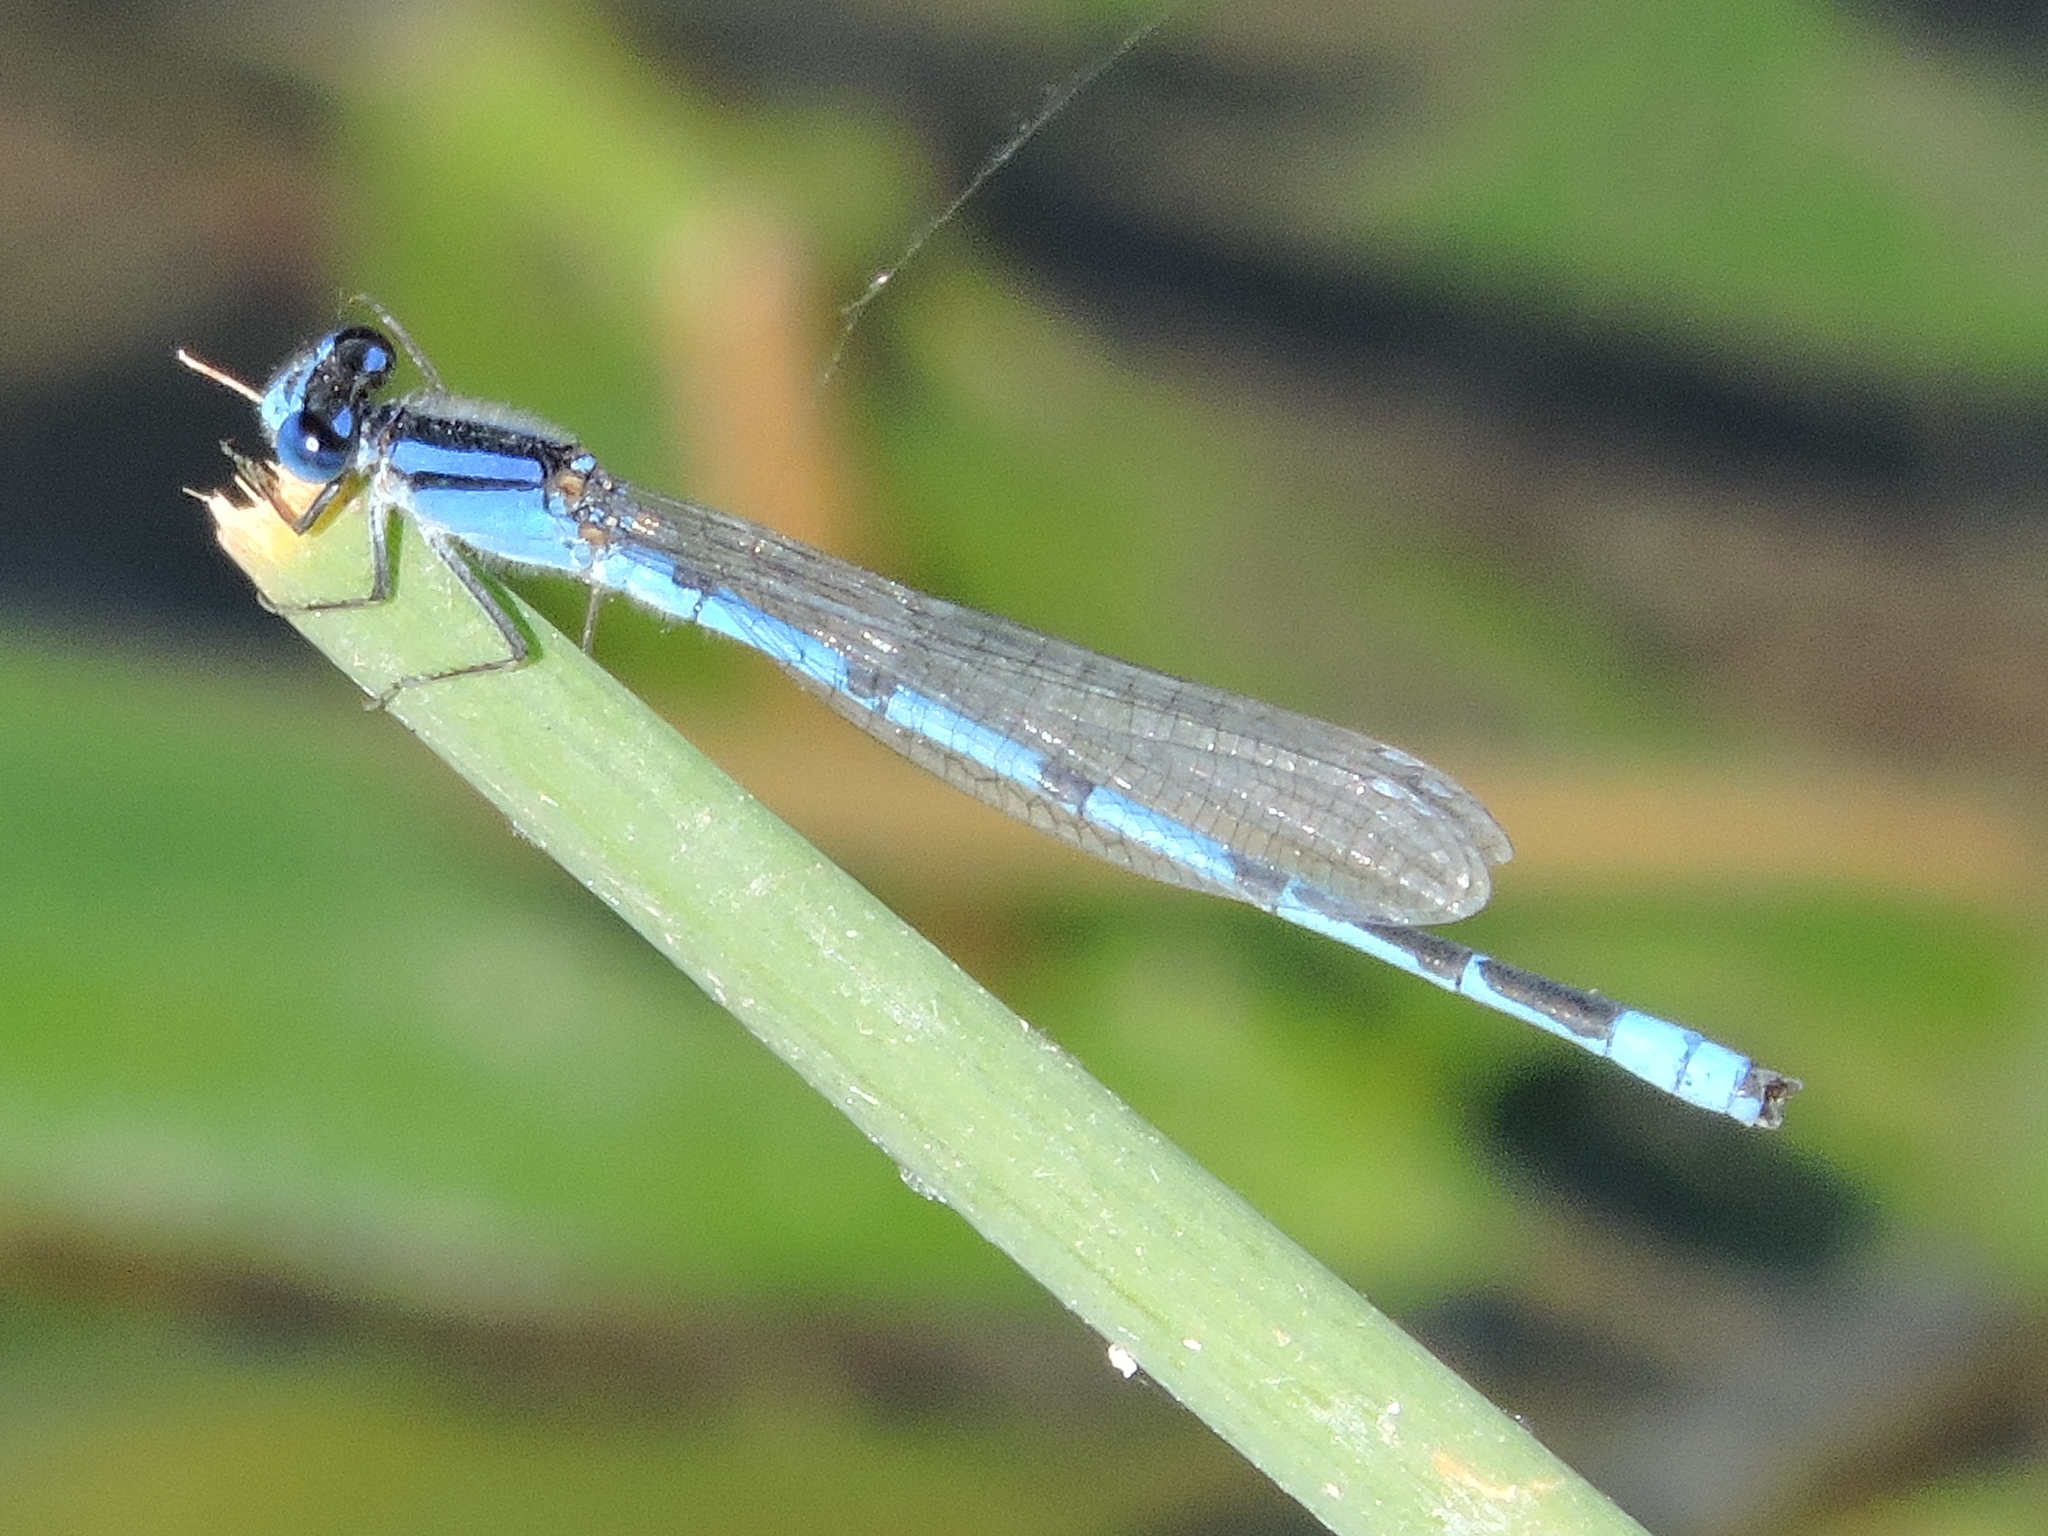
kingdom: Animalia
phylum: Arthropoda
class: Insecta
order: Odonata
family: Coenagrionidae
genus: Enallagma
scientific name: Enallagma civile
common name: Damselfly
